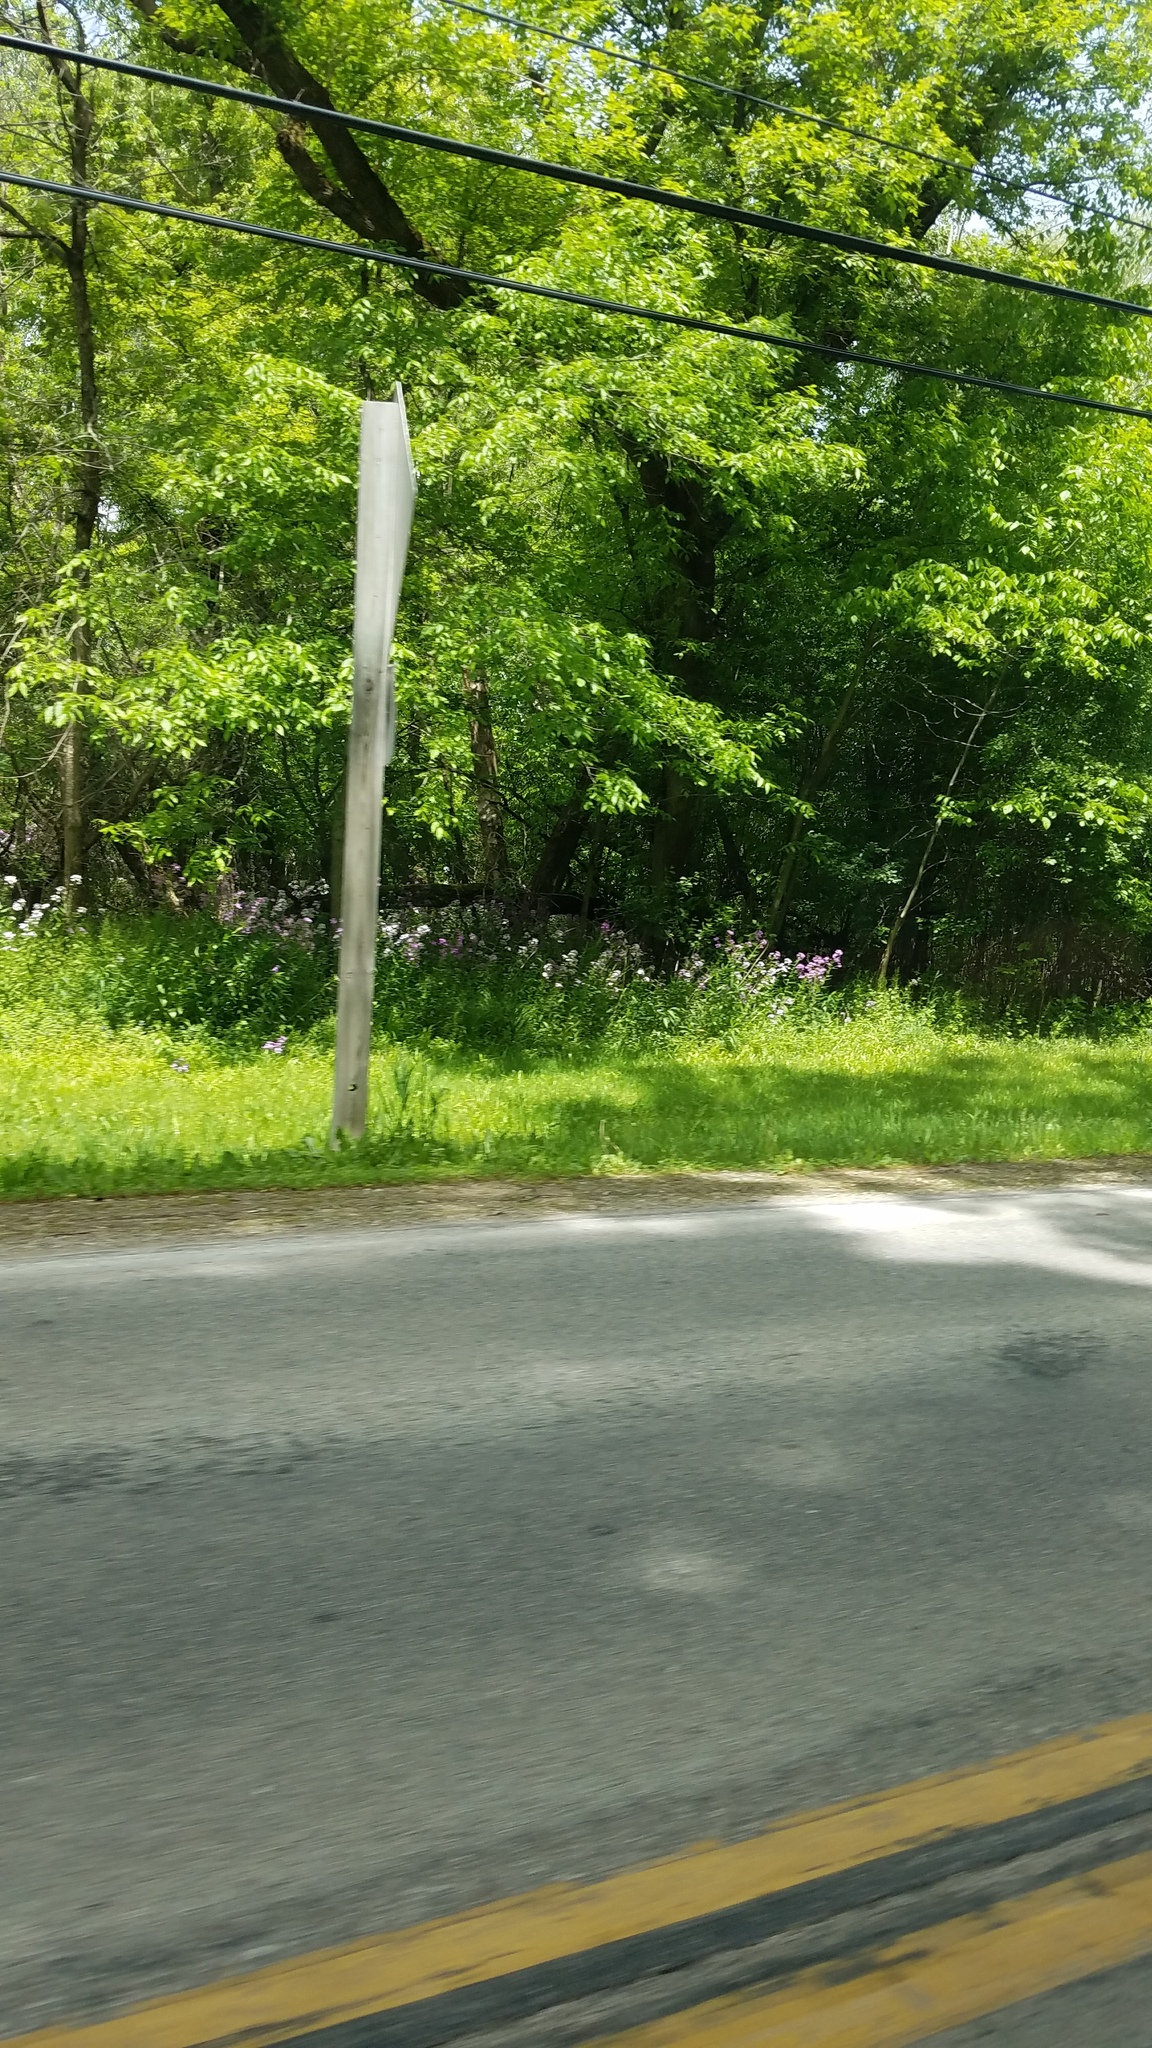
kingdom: Plantae
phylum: Tracheophyta
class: Magnoliopsida
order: Brassicales
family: Brassicaceae
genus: Hesperis
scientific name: Hesperis matronalis
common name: Dame's-violet
